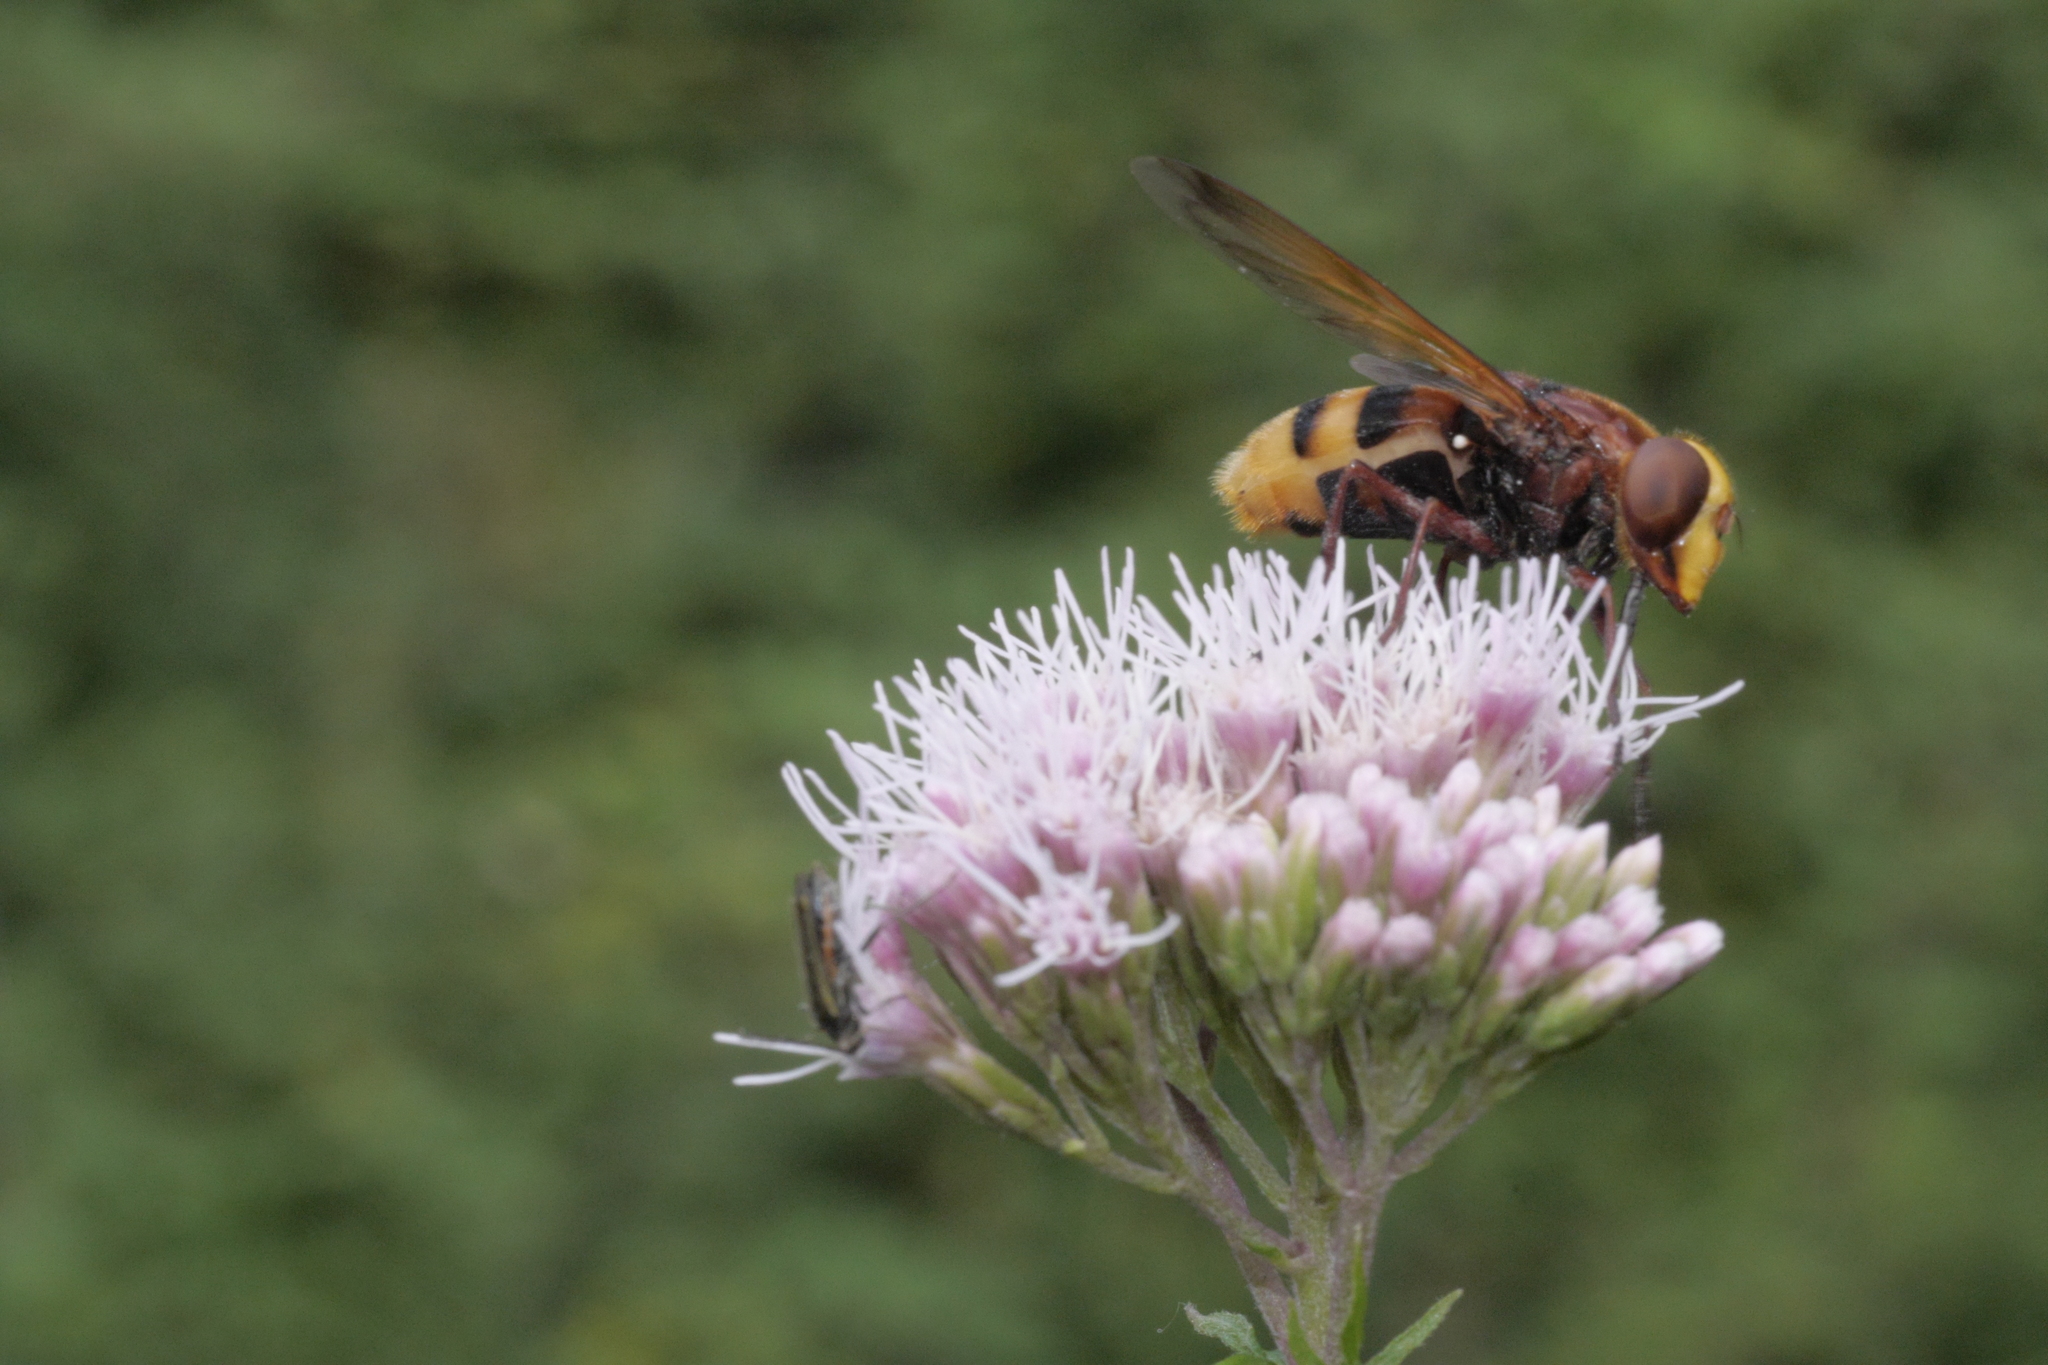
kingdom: Animalia
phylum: Arthropoda
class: Insecta
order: Diptera
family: Syrphidae
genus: Volucella
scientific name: Volucella zonaria
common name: Hornet hoverfly
